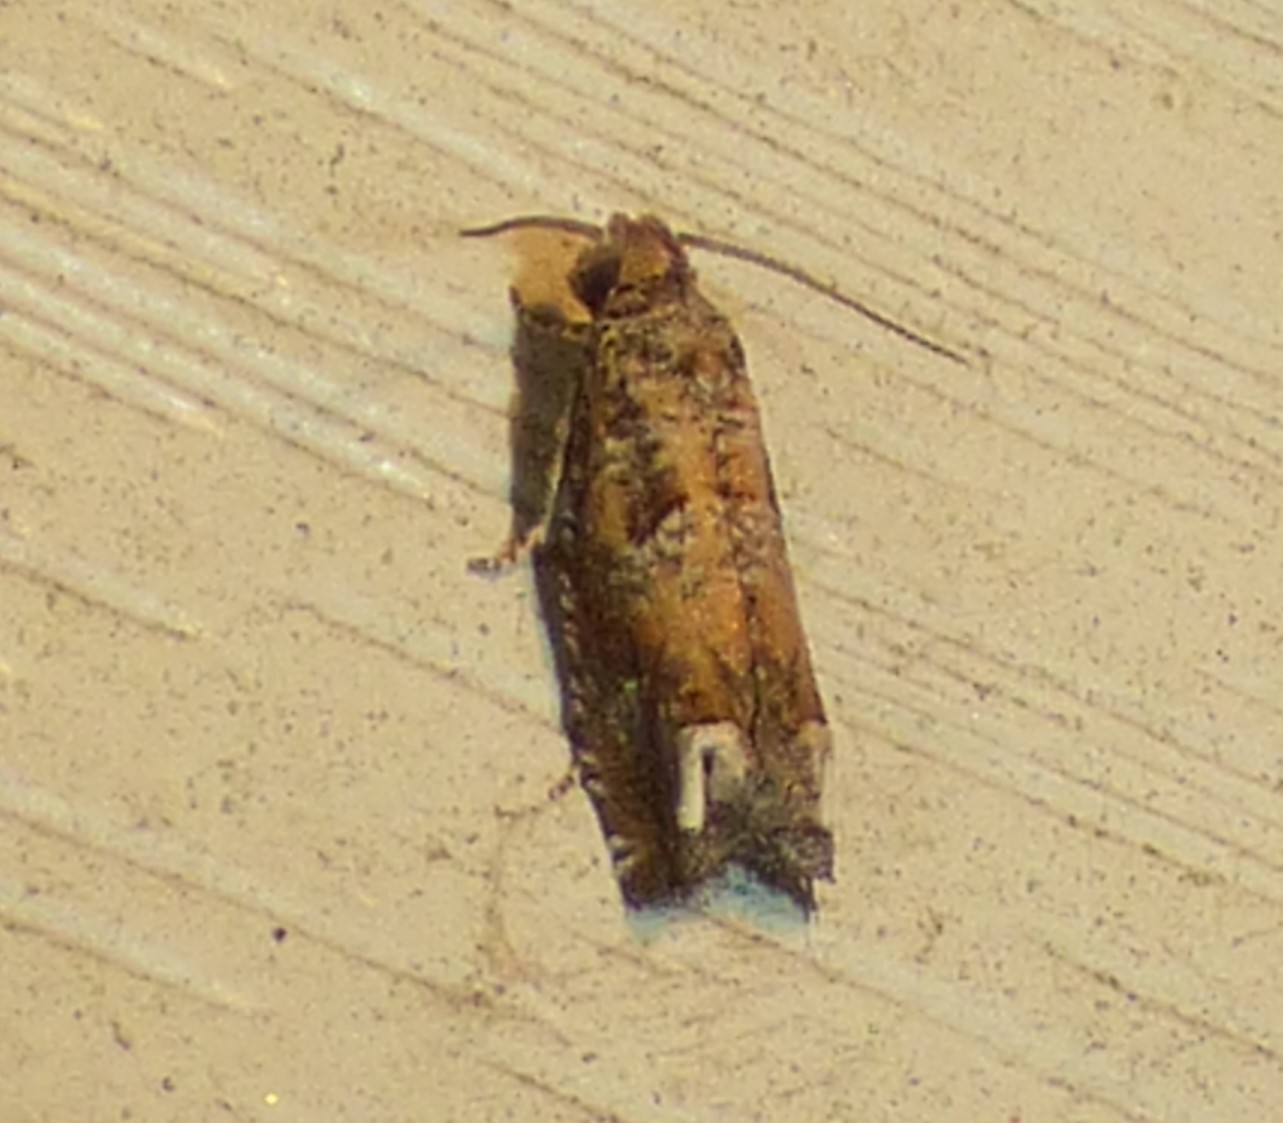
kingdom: Animalia
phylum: Arthropoda
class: Insecta
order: Lepidoptera
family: Tortricidae
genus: Epiblema
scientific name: Epiblema abruptana
